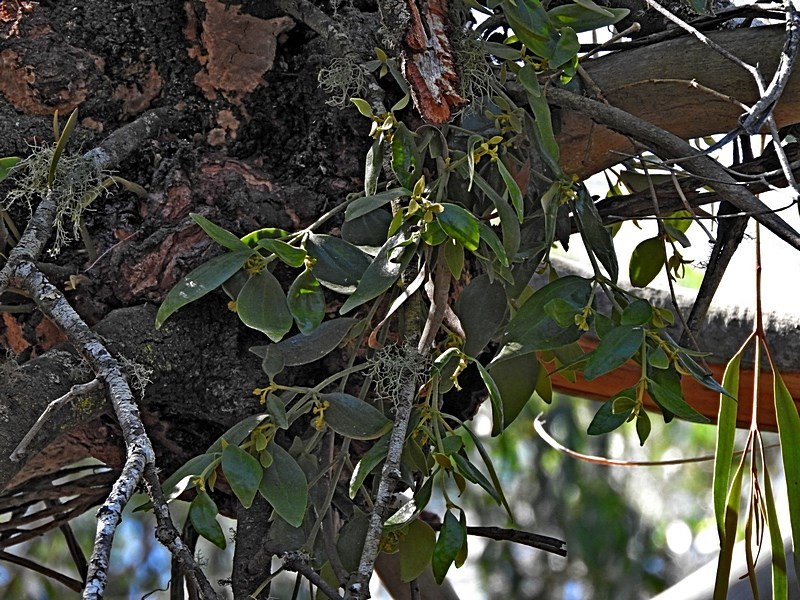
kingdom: Plantae
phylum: Tracheophyta
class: Magnoliopsida
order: Santalales
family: Viscaceae
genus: Notothixos
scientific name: Notothixos subaureus
